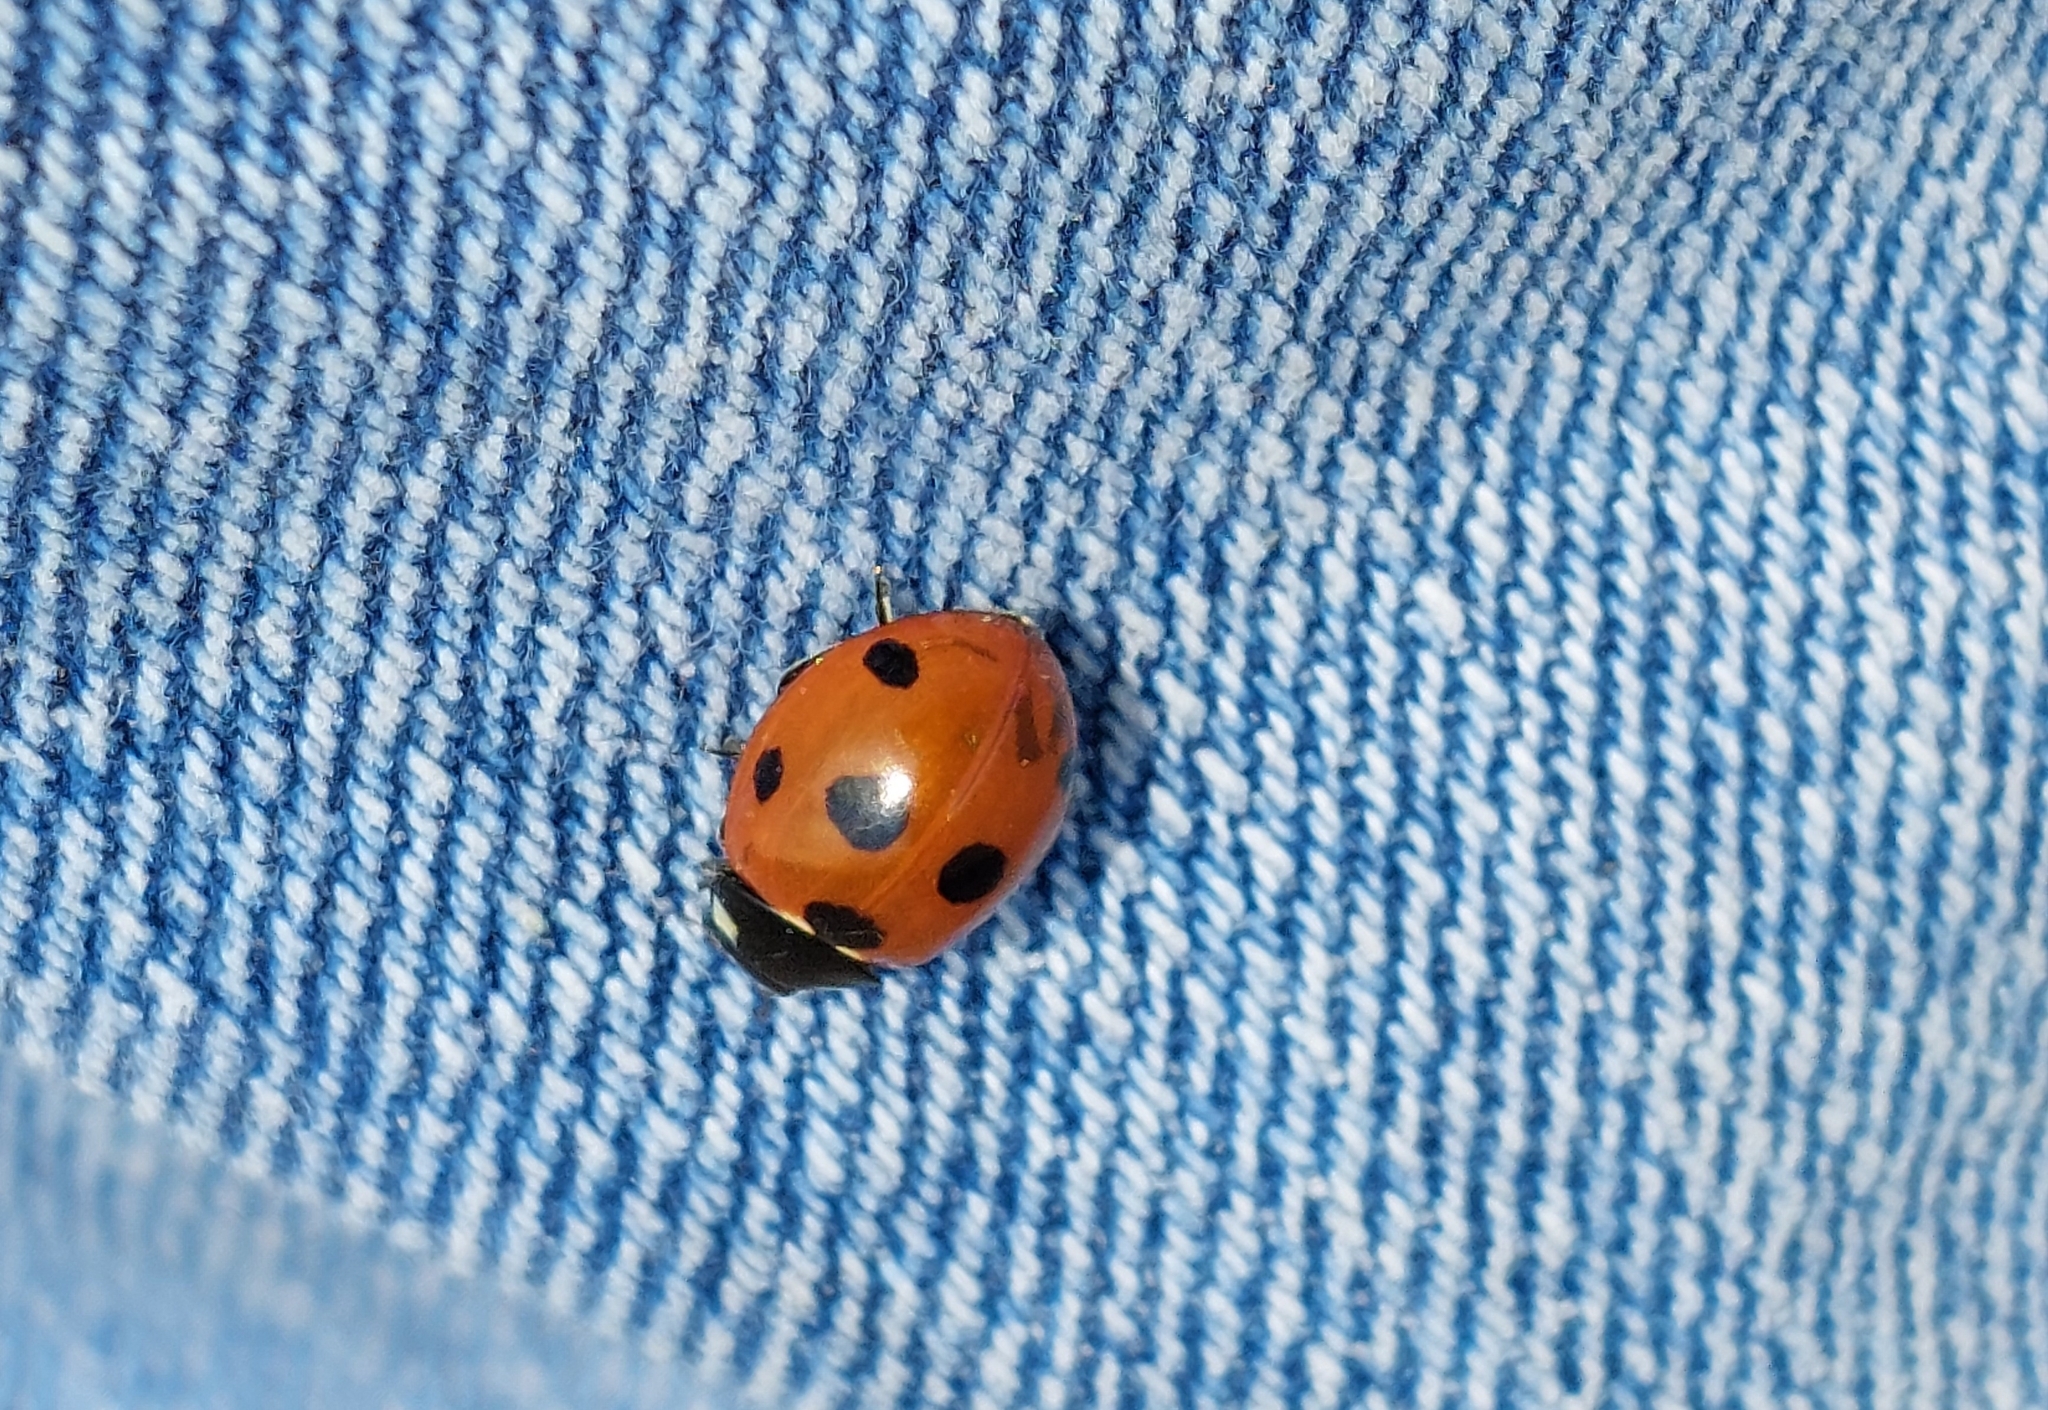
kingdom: Animalia
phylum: Arthropoda
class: Insecta
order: Coleoptera
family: Coccinellidae
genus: Coccinella
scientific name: Coccinella septempunctata
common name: Sevenspotted lady beetle
